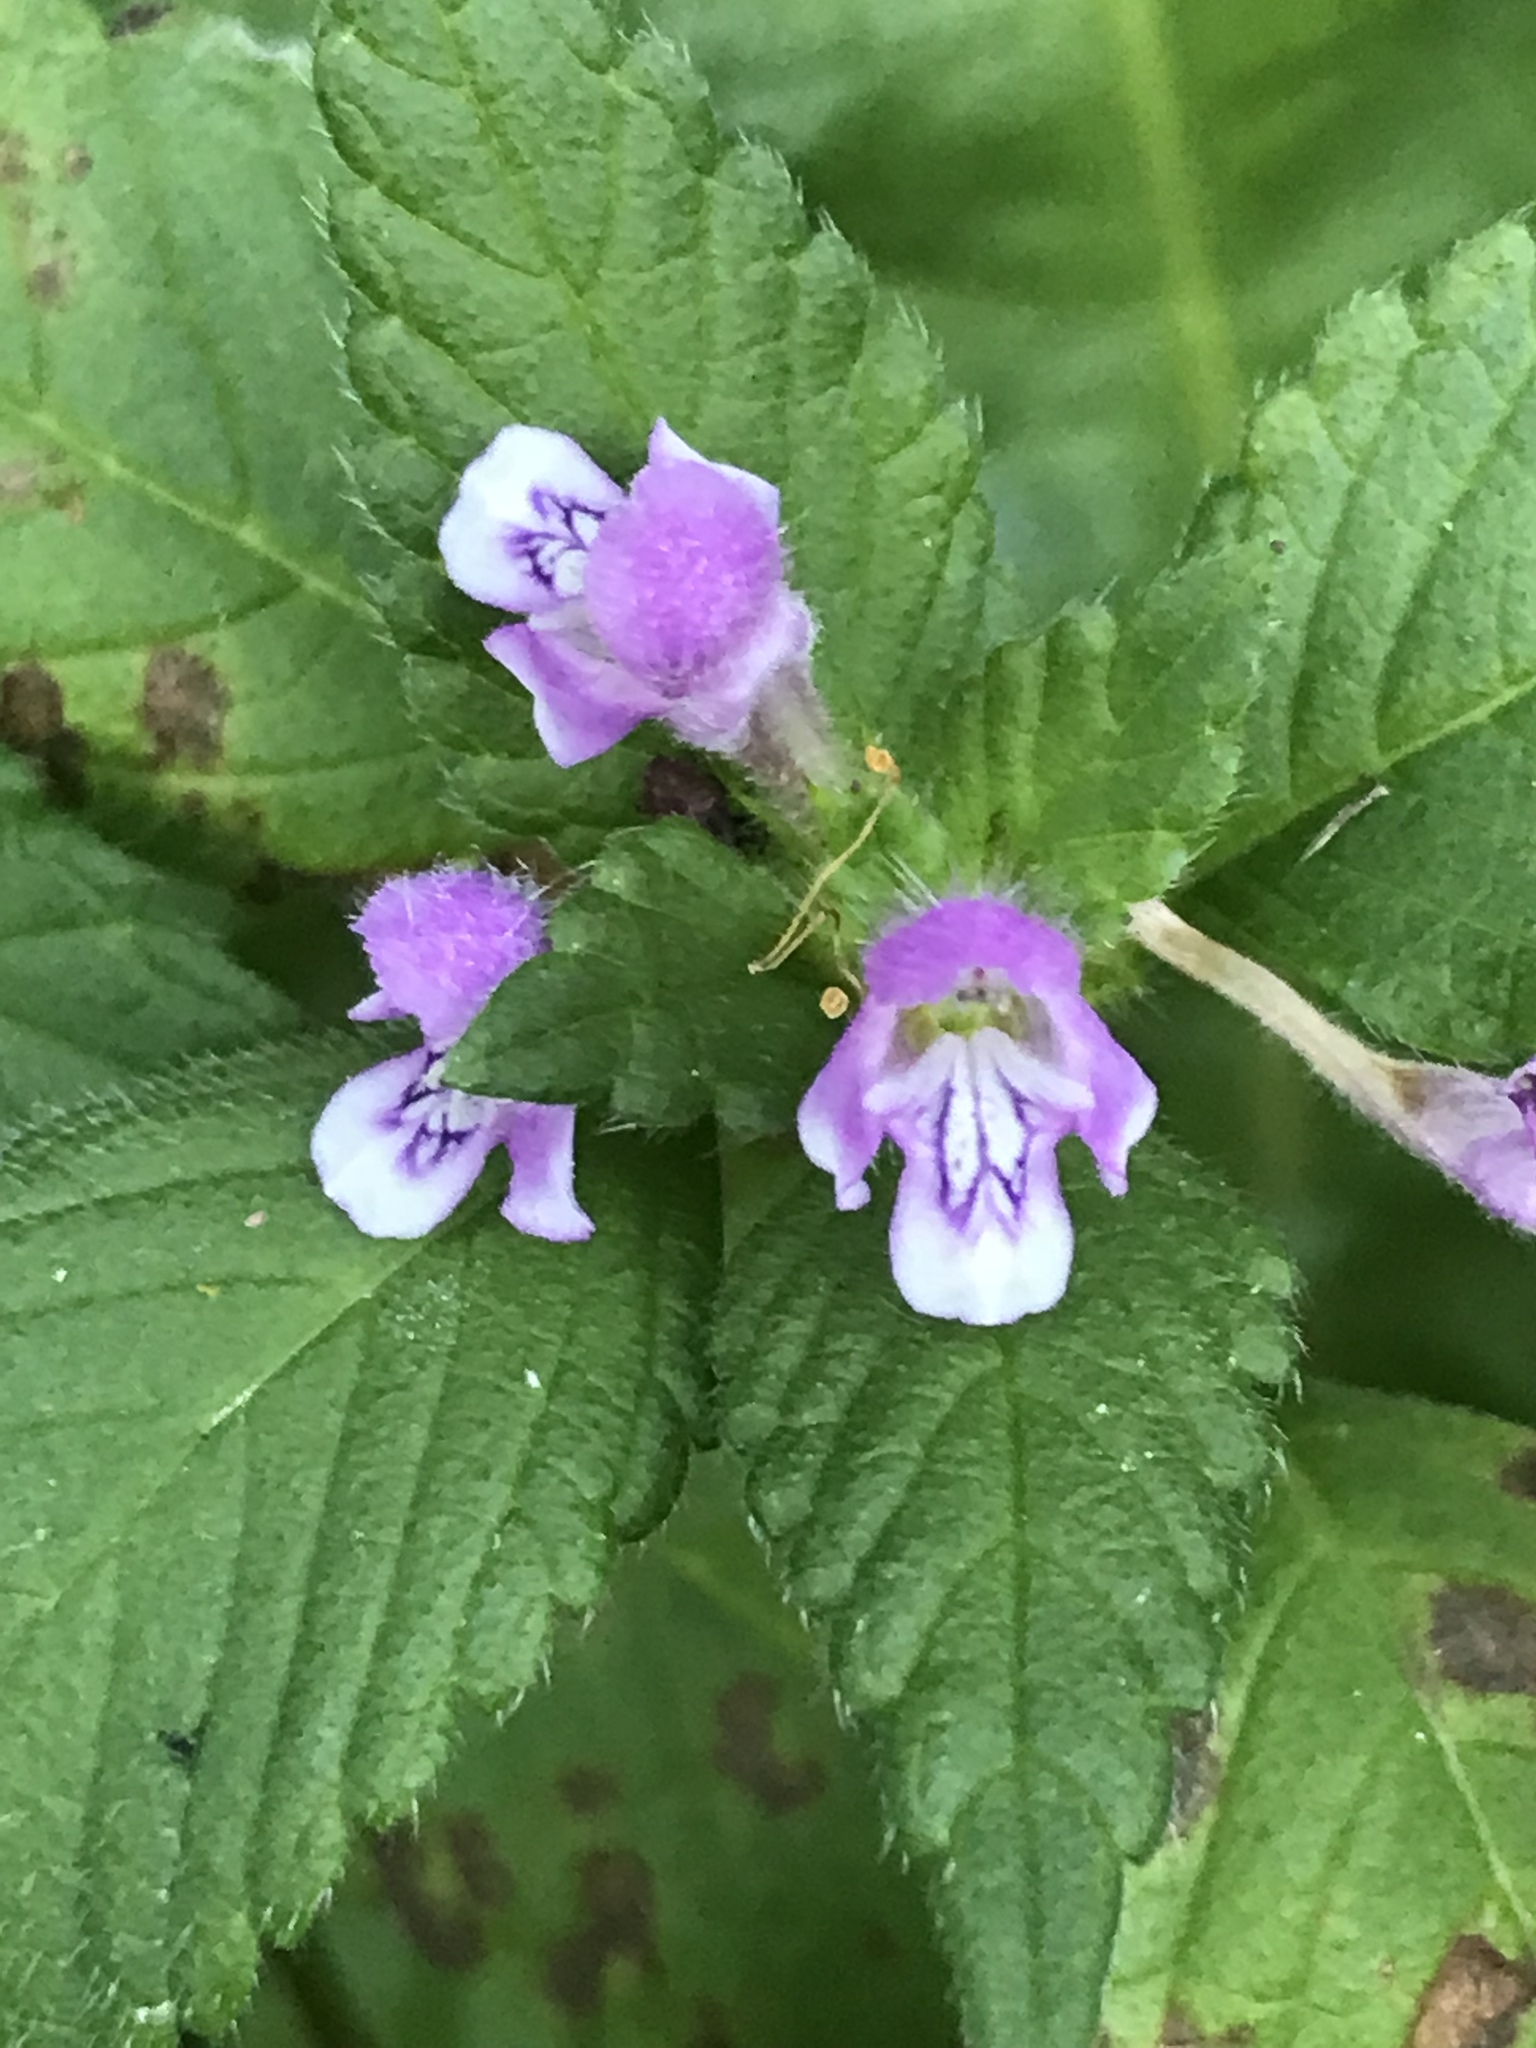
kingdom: Plantae
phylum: Tracheophyta
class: Magnoliopsida
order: Lamiales
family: Lamiaceae
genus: Galeopsis
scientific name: Galeopsis tetrahit
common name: Common hemp-nettle
